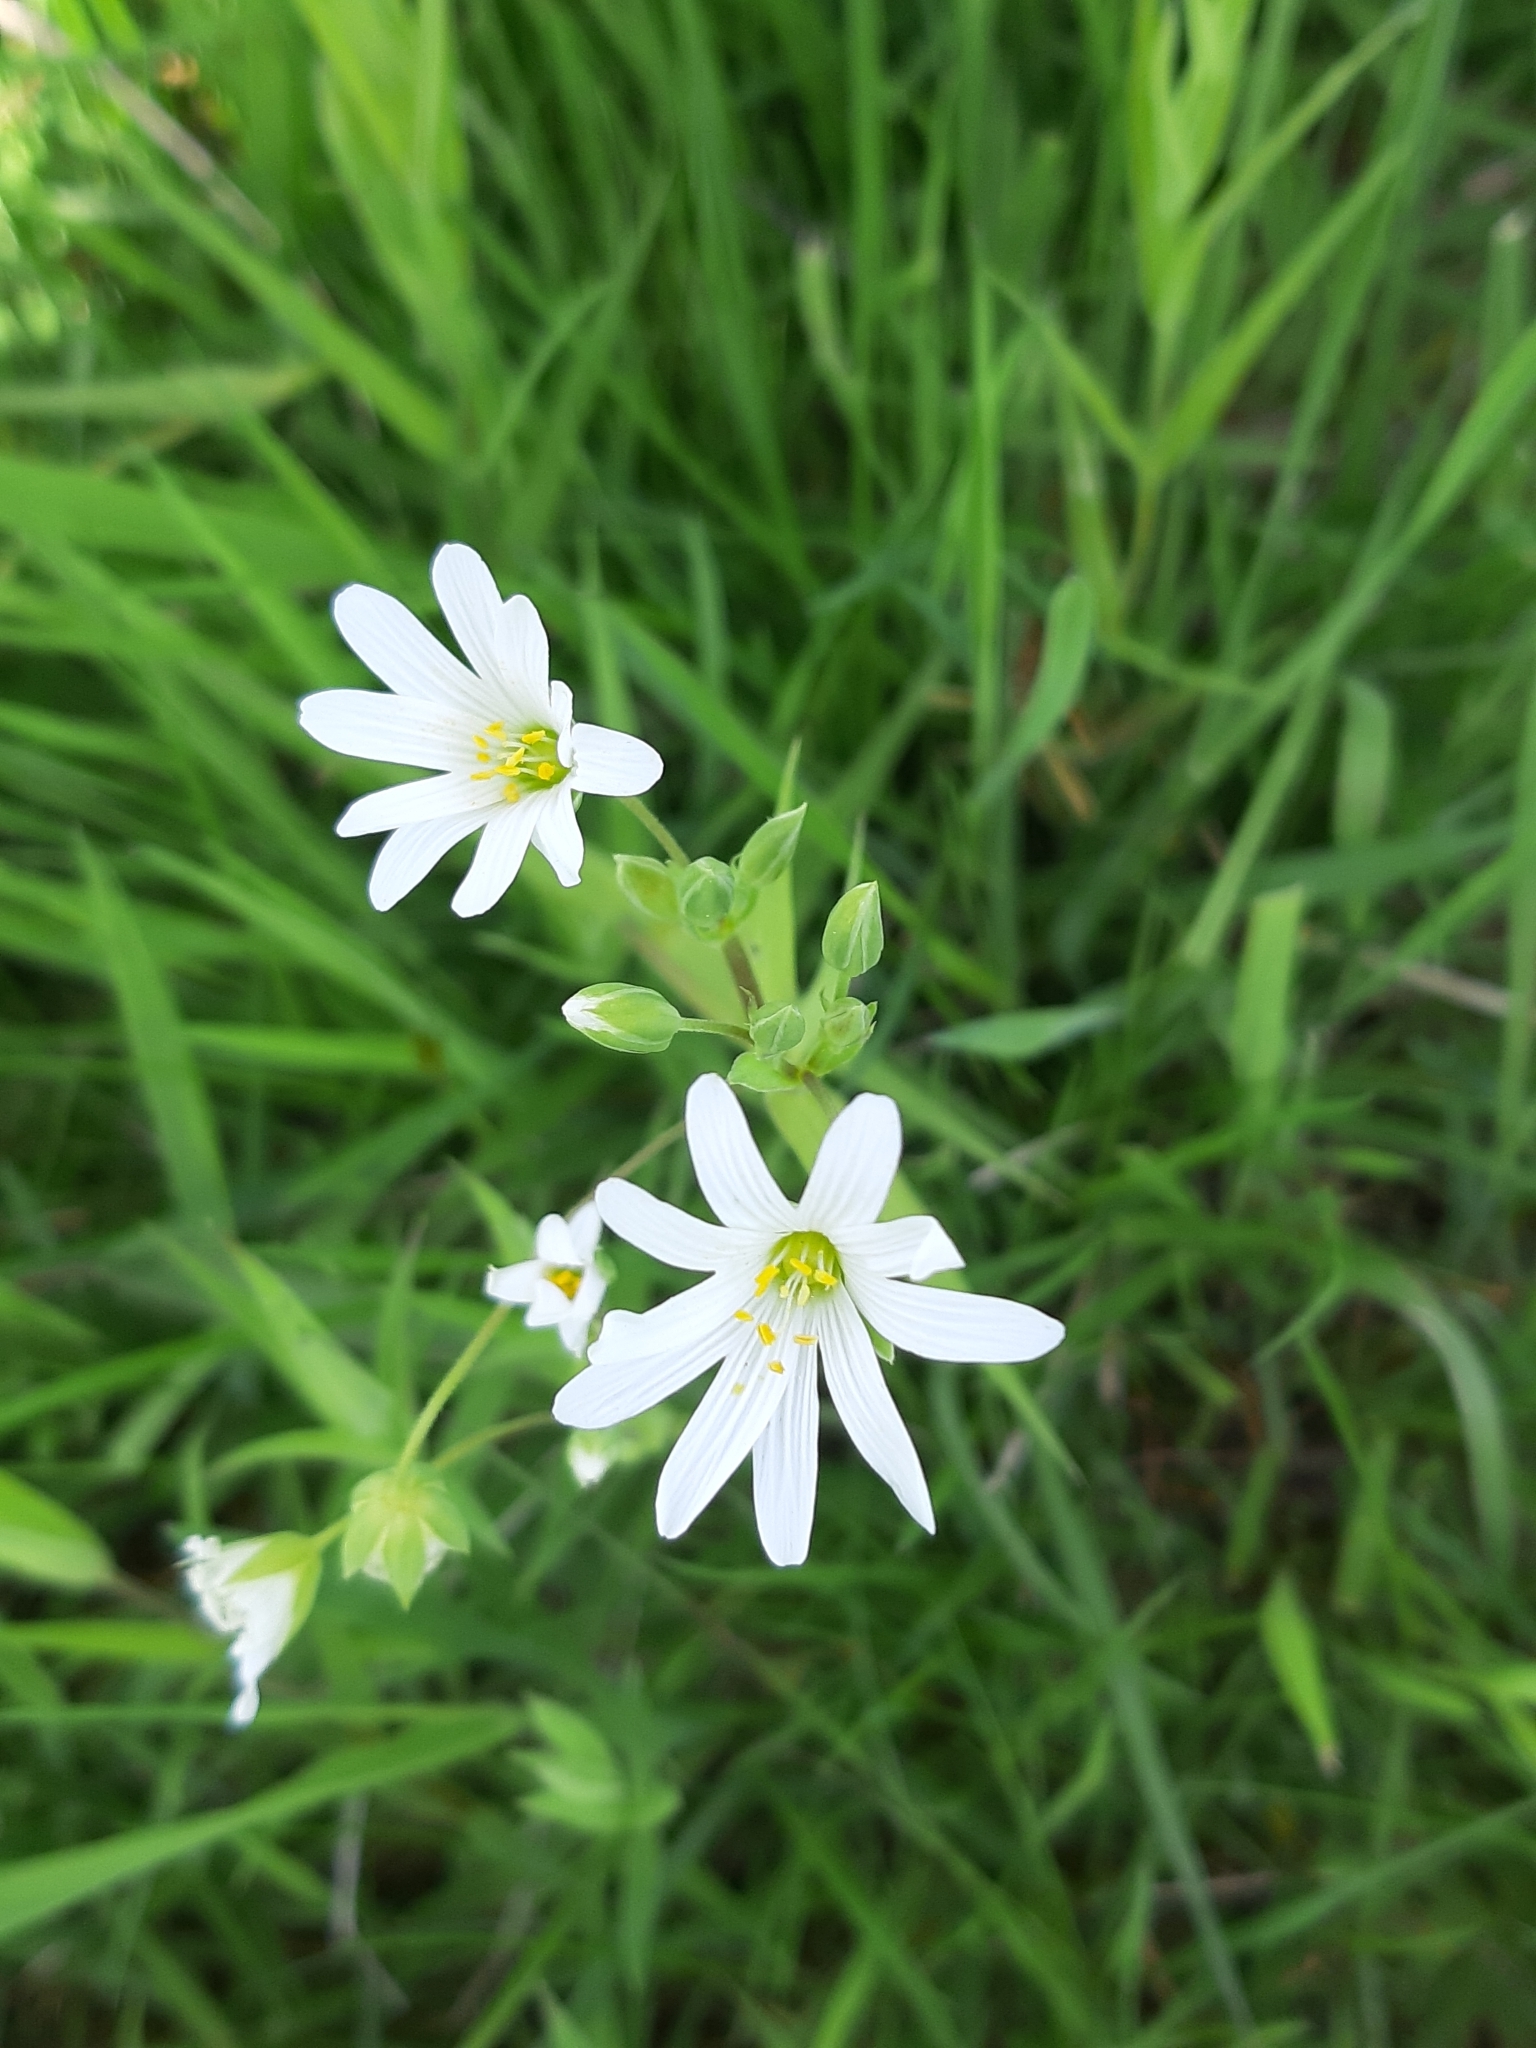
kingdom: Plantae
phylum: Tracheophyta
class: Magnoliopsida
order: Caryophyllales
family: Caryophyllaceae
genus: Rabelera
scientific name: Rabelera holostea
